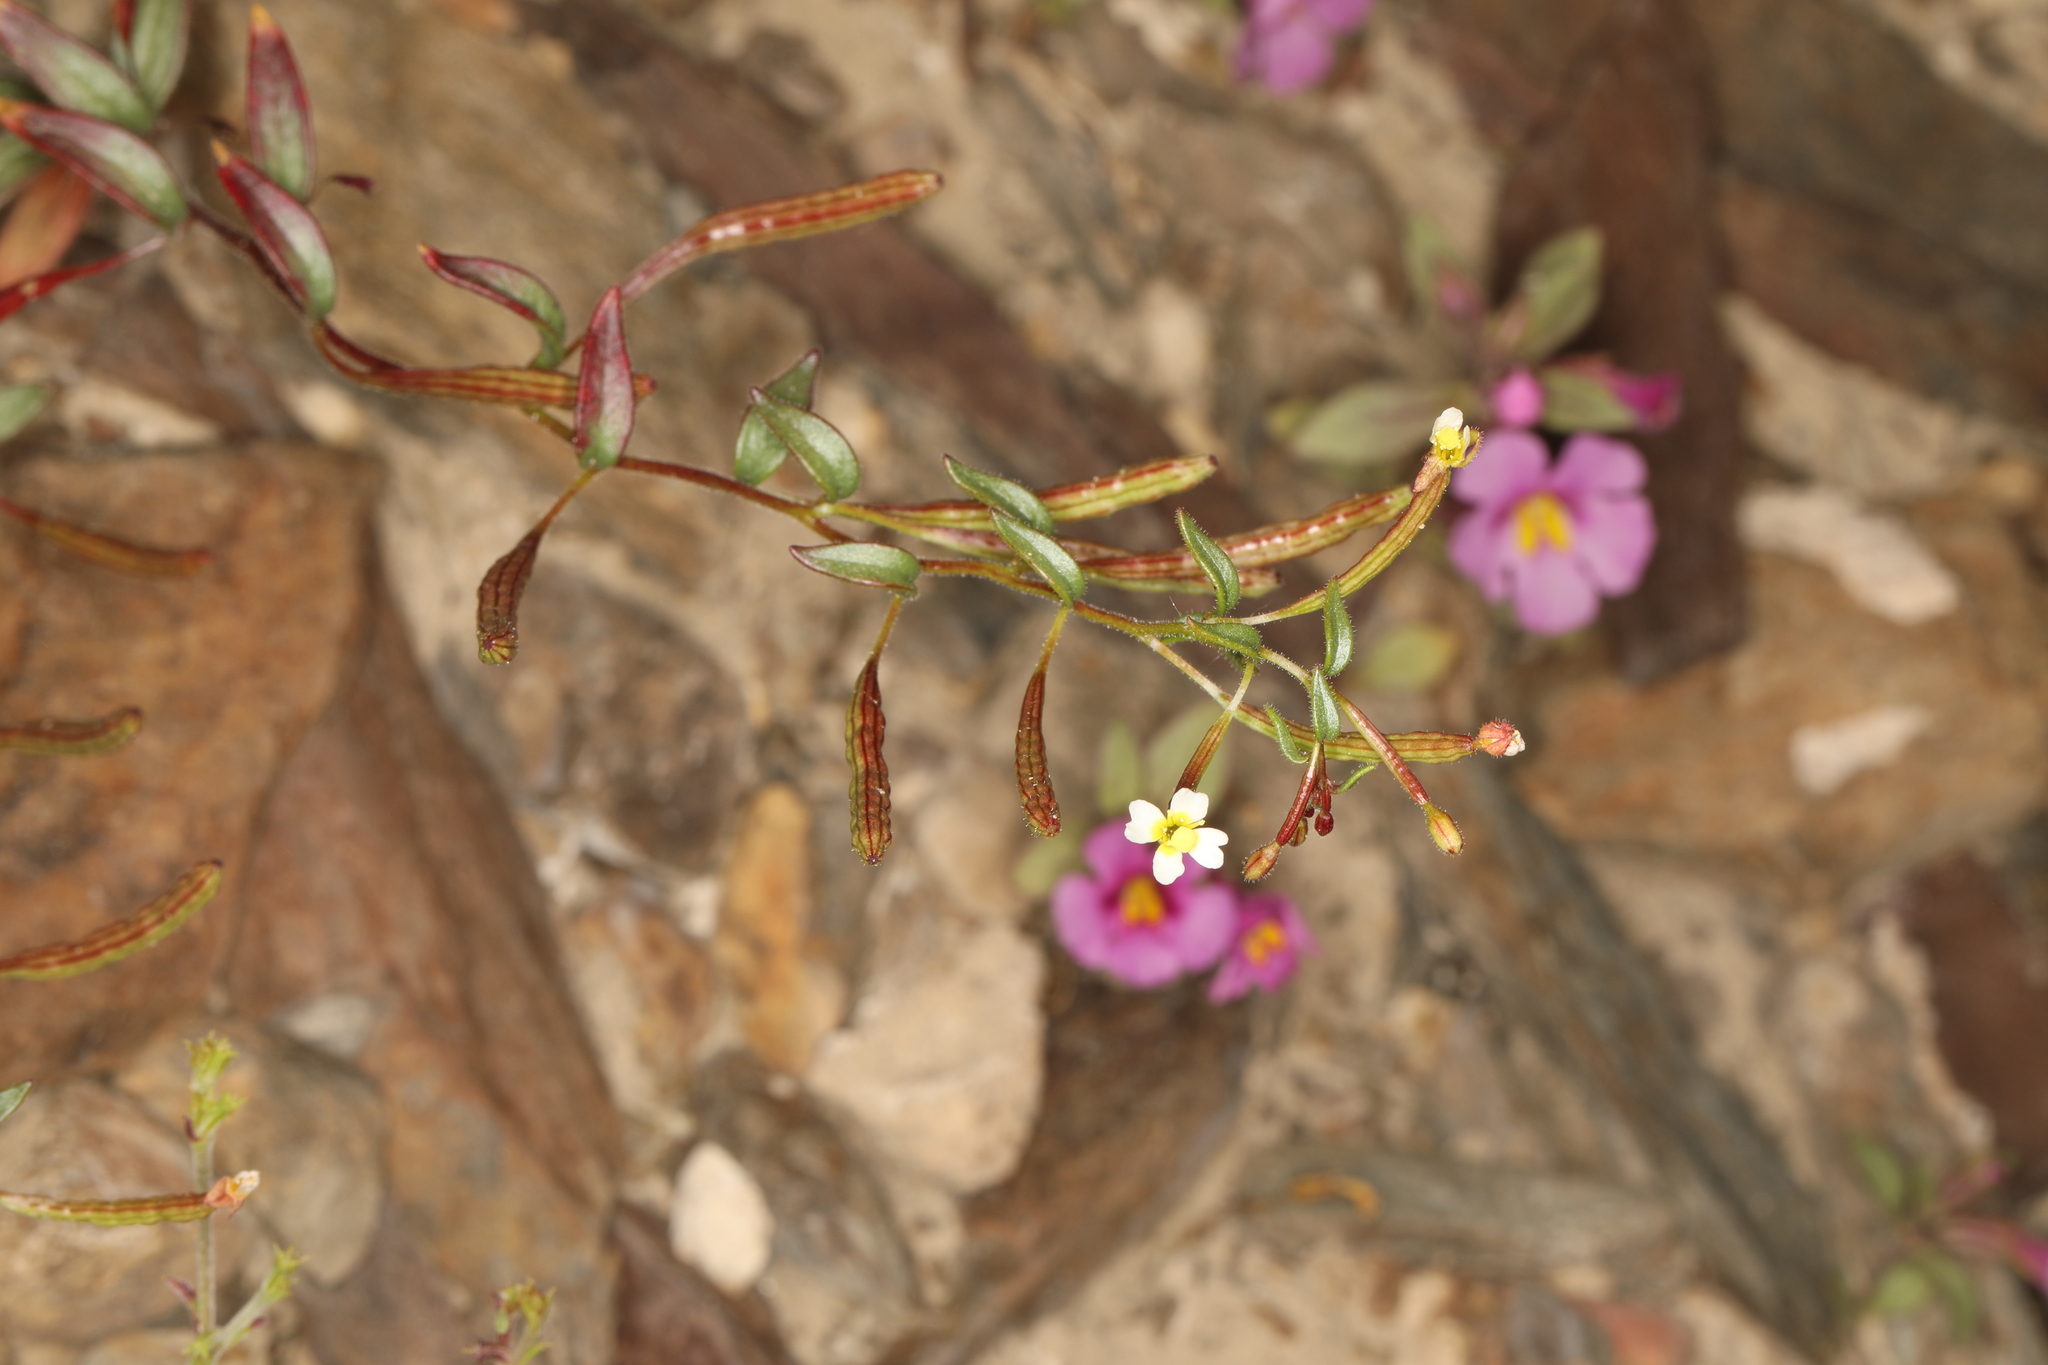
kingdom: Plantae
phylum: Tracheophyta
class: Magnoliopsida
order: Myrtales
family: Onagraceae
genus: Chylismiella
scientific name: Chylismiella pterosperma
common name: Wingfruit suncup
